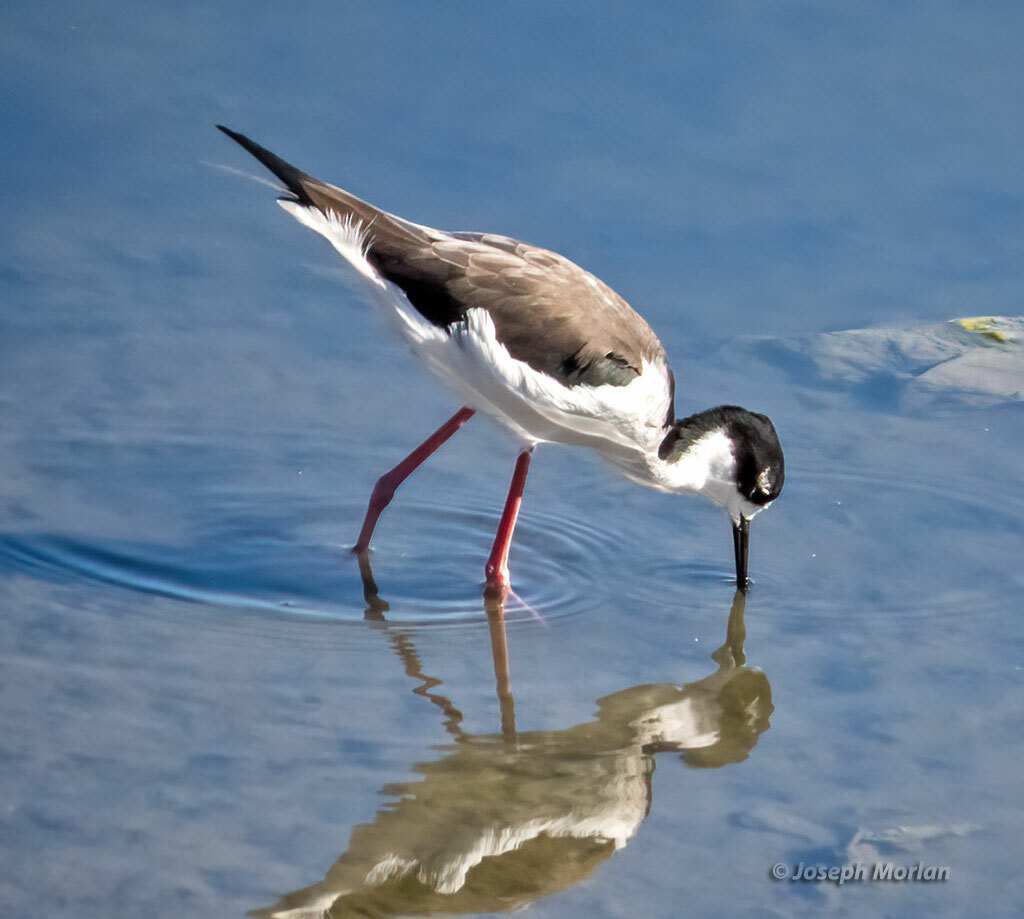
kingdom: Animalia
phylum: Chordata
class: Aves
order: Charadriiformes
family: Recurvirostridae
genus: Himantopus
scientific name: Himantopus mexicanus
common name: Black-necked stilt
